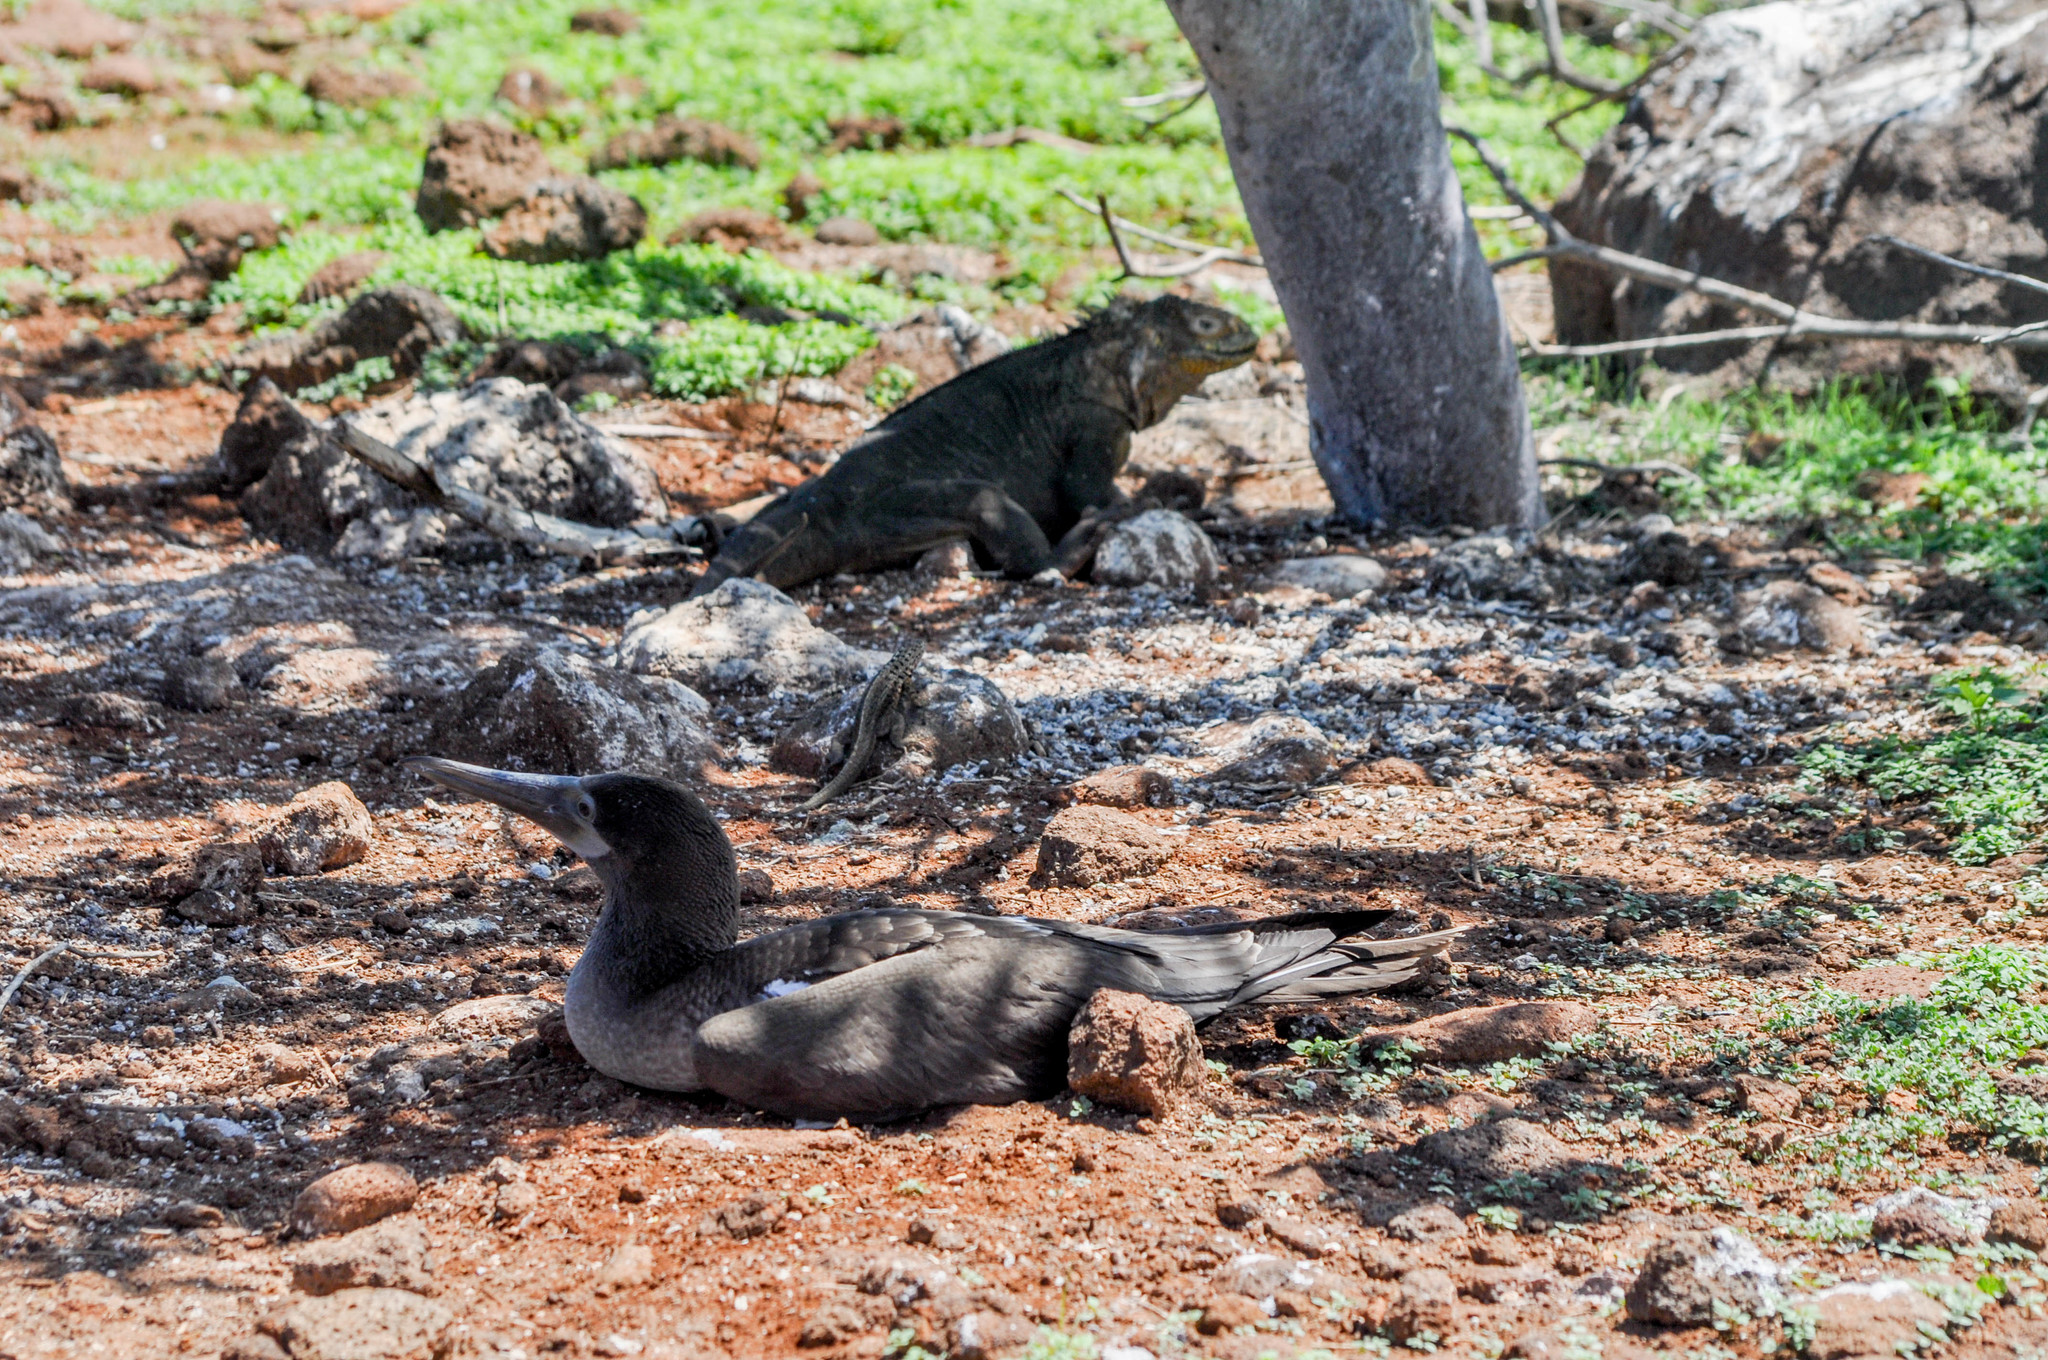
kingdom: Animalia
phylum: Chordata
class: Aves
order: Suliformes
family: Sulidae
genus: Sula
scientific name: Sula nebouxii
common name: Blue-footed booby
